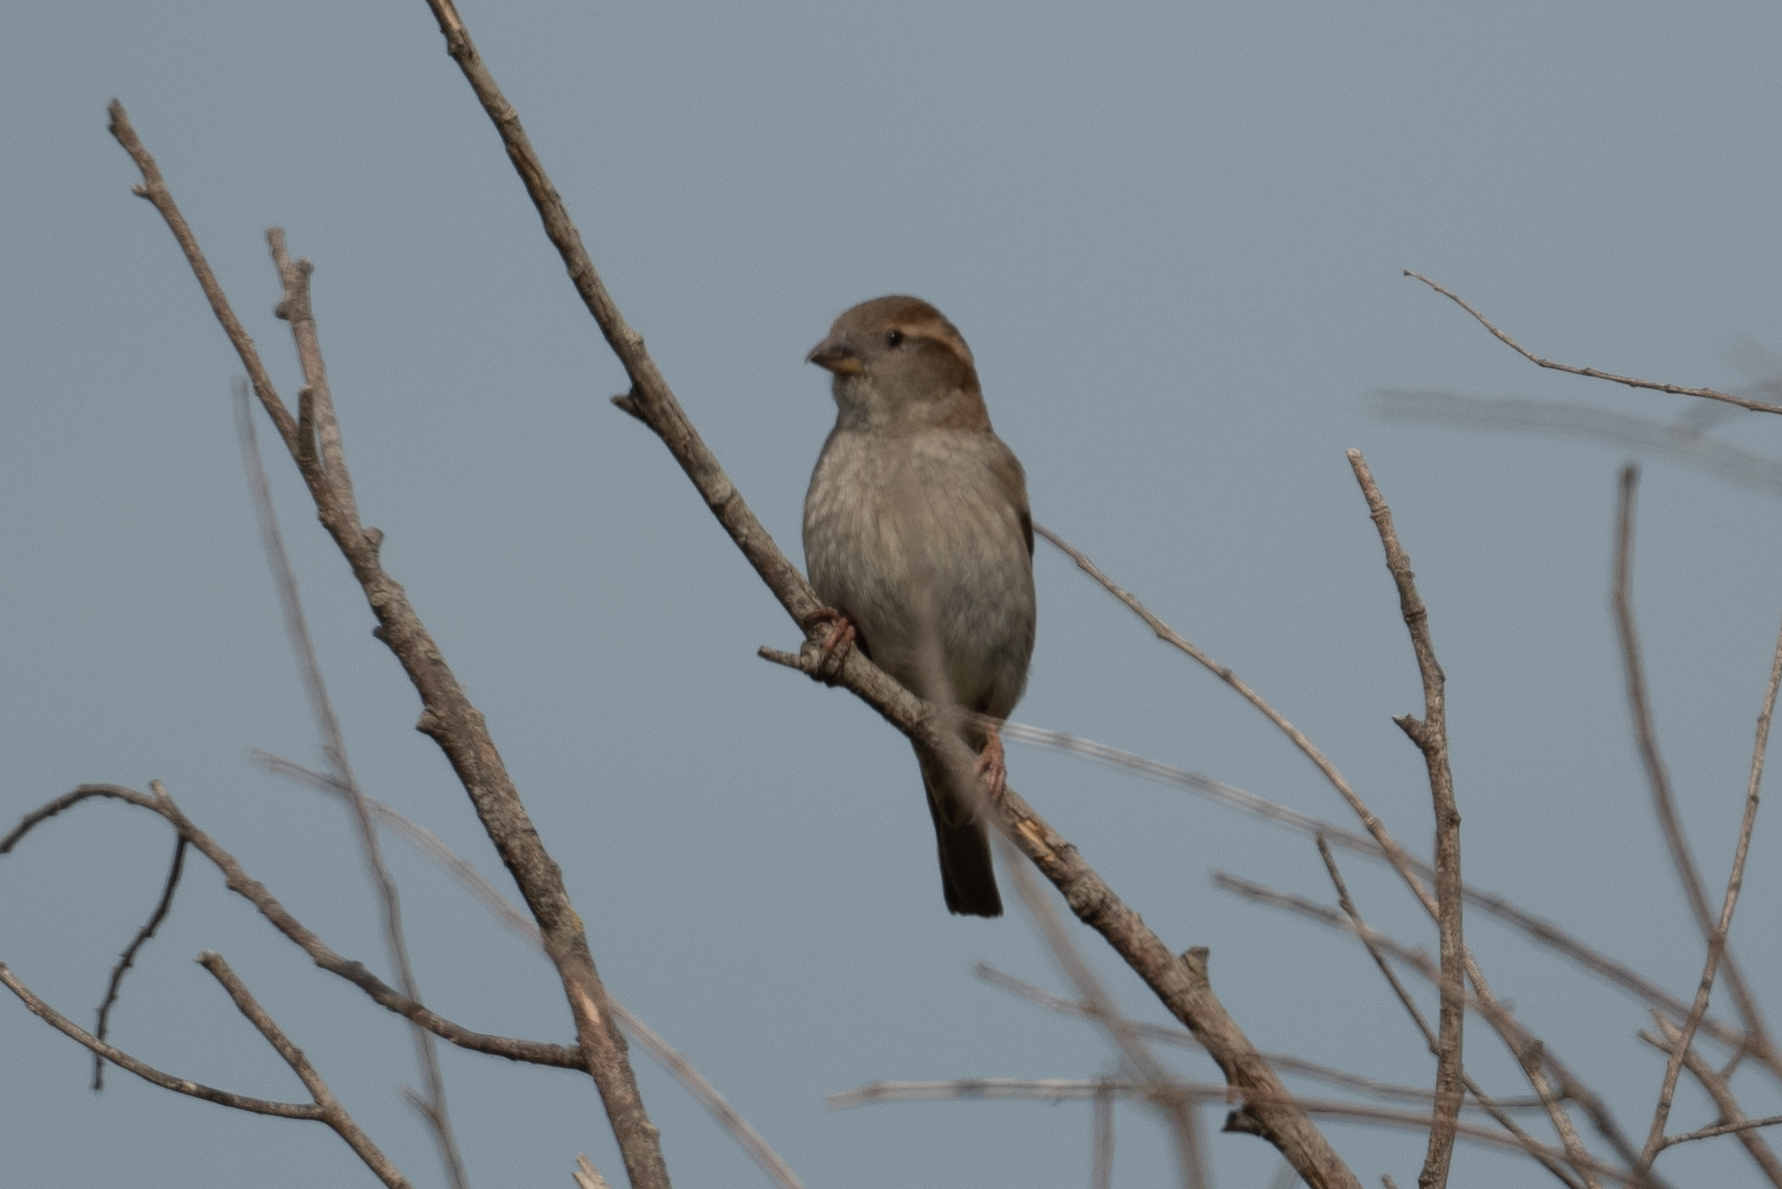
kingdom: Animalia
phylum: Chordata
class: Aves
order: Passeriformes
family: Passeridae
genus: Passer
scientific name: Passer domesticus
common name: House sparrow
